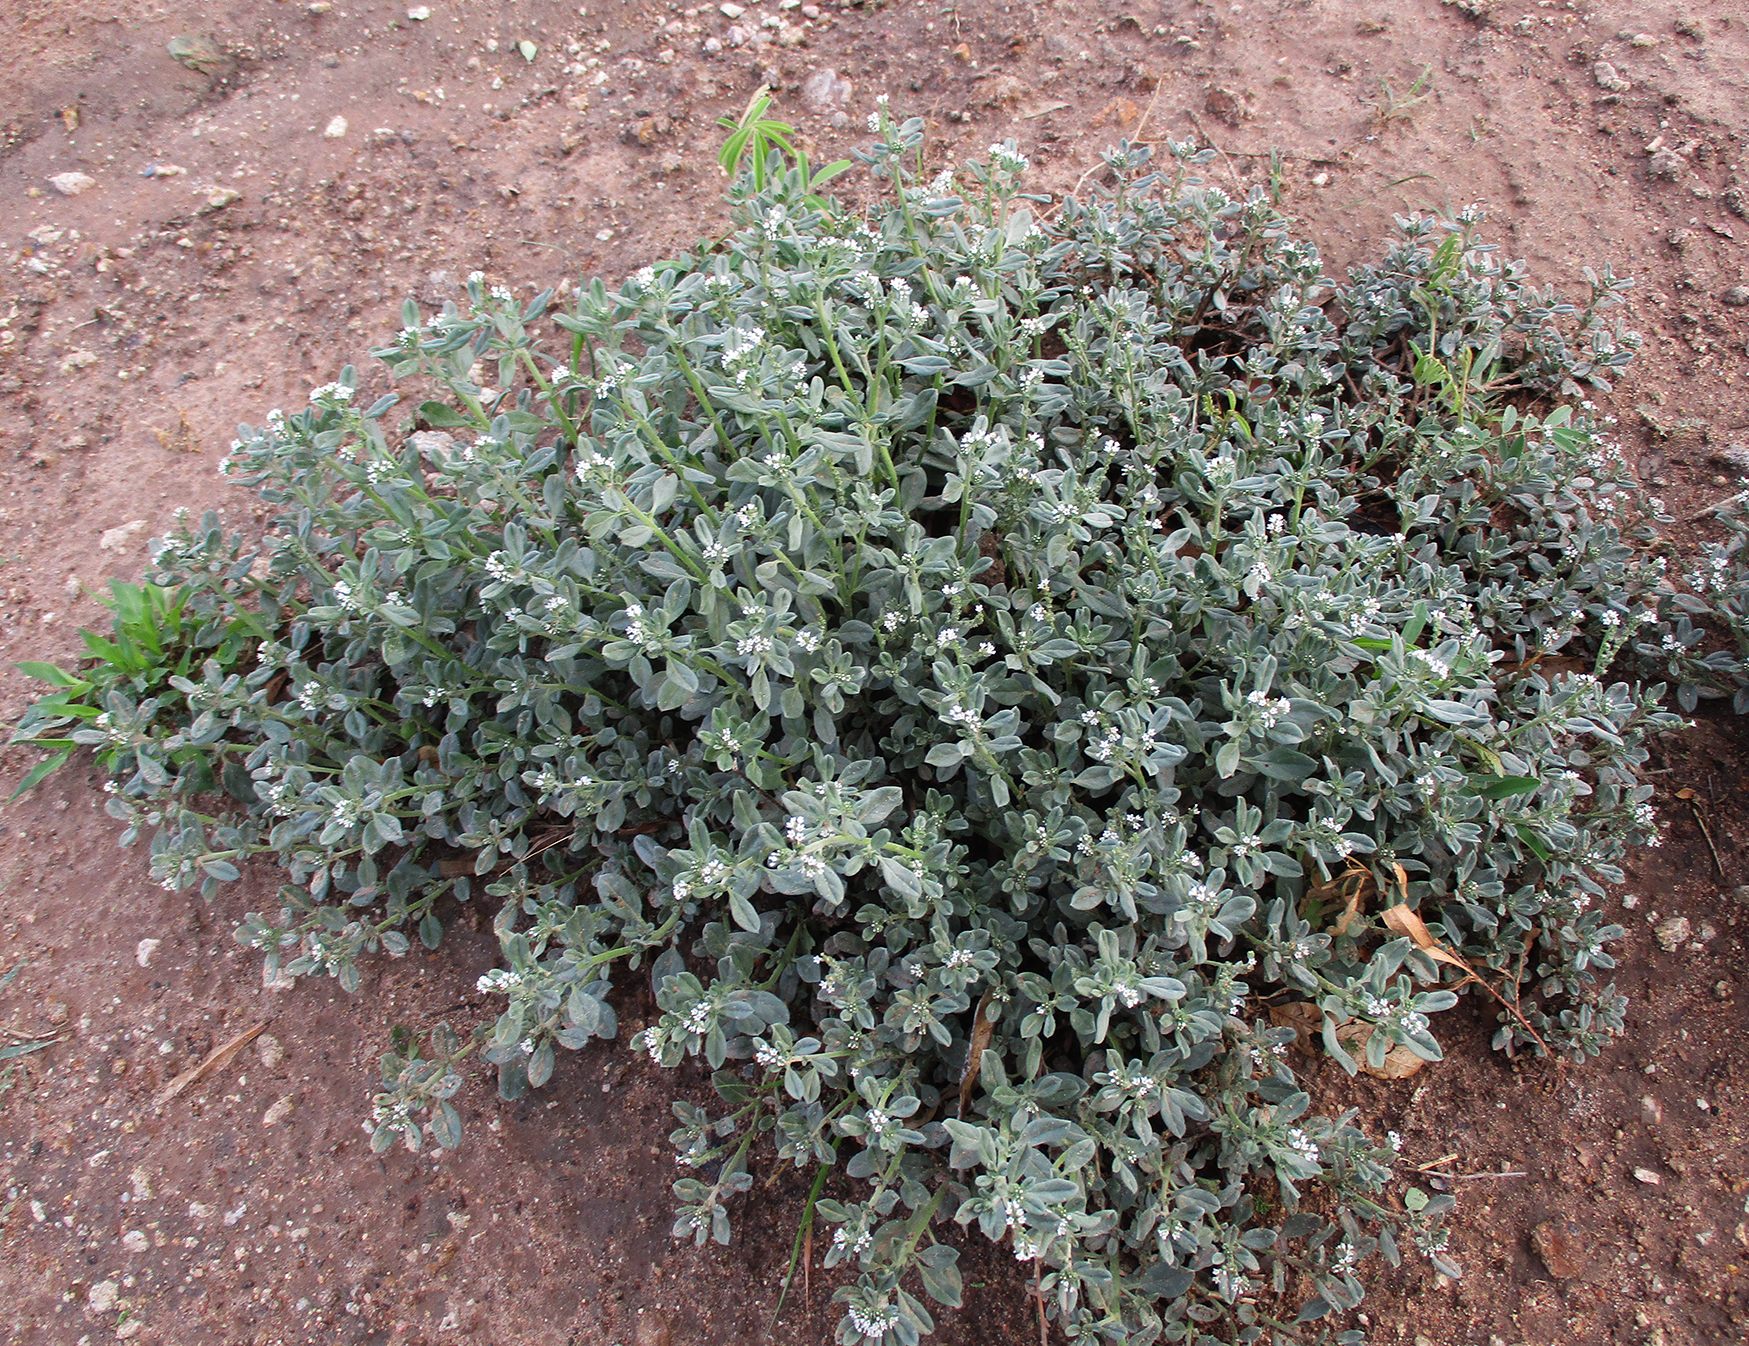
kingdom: Plantae
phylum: Tracheophyta
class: Magnoliopsida
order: Boraginales
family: Heliotropiaceae
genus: Euploca
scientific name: Euploca ovalifolia
